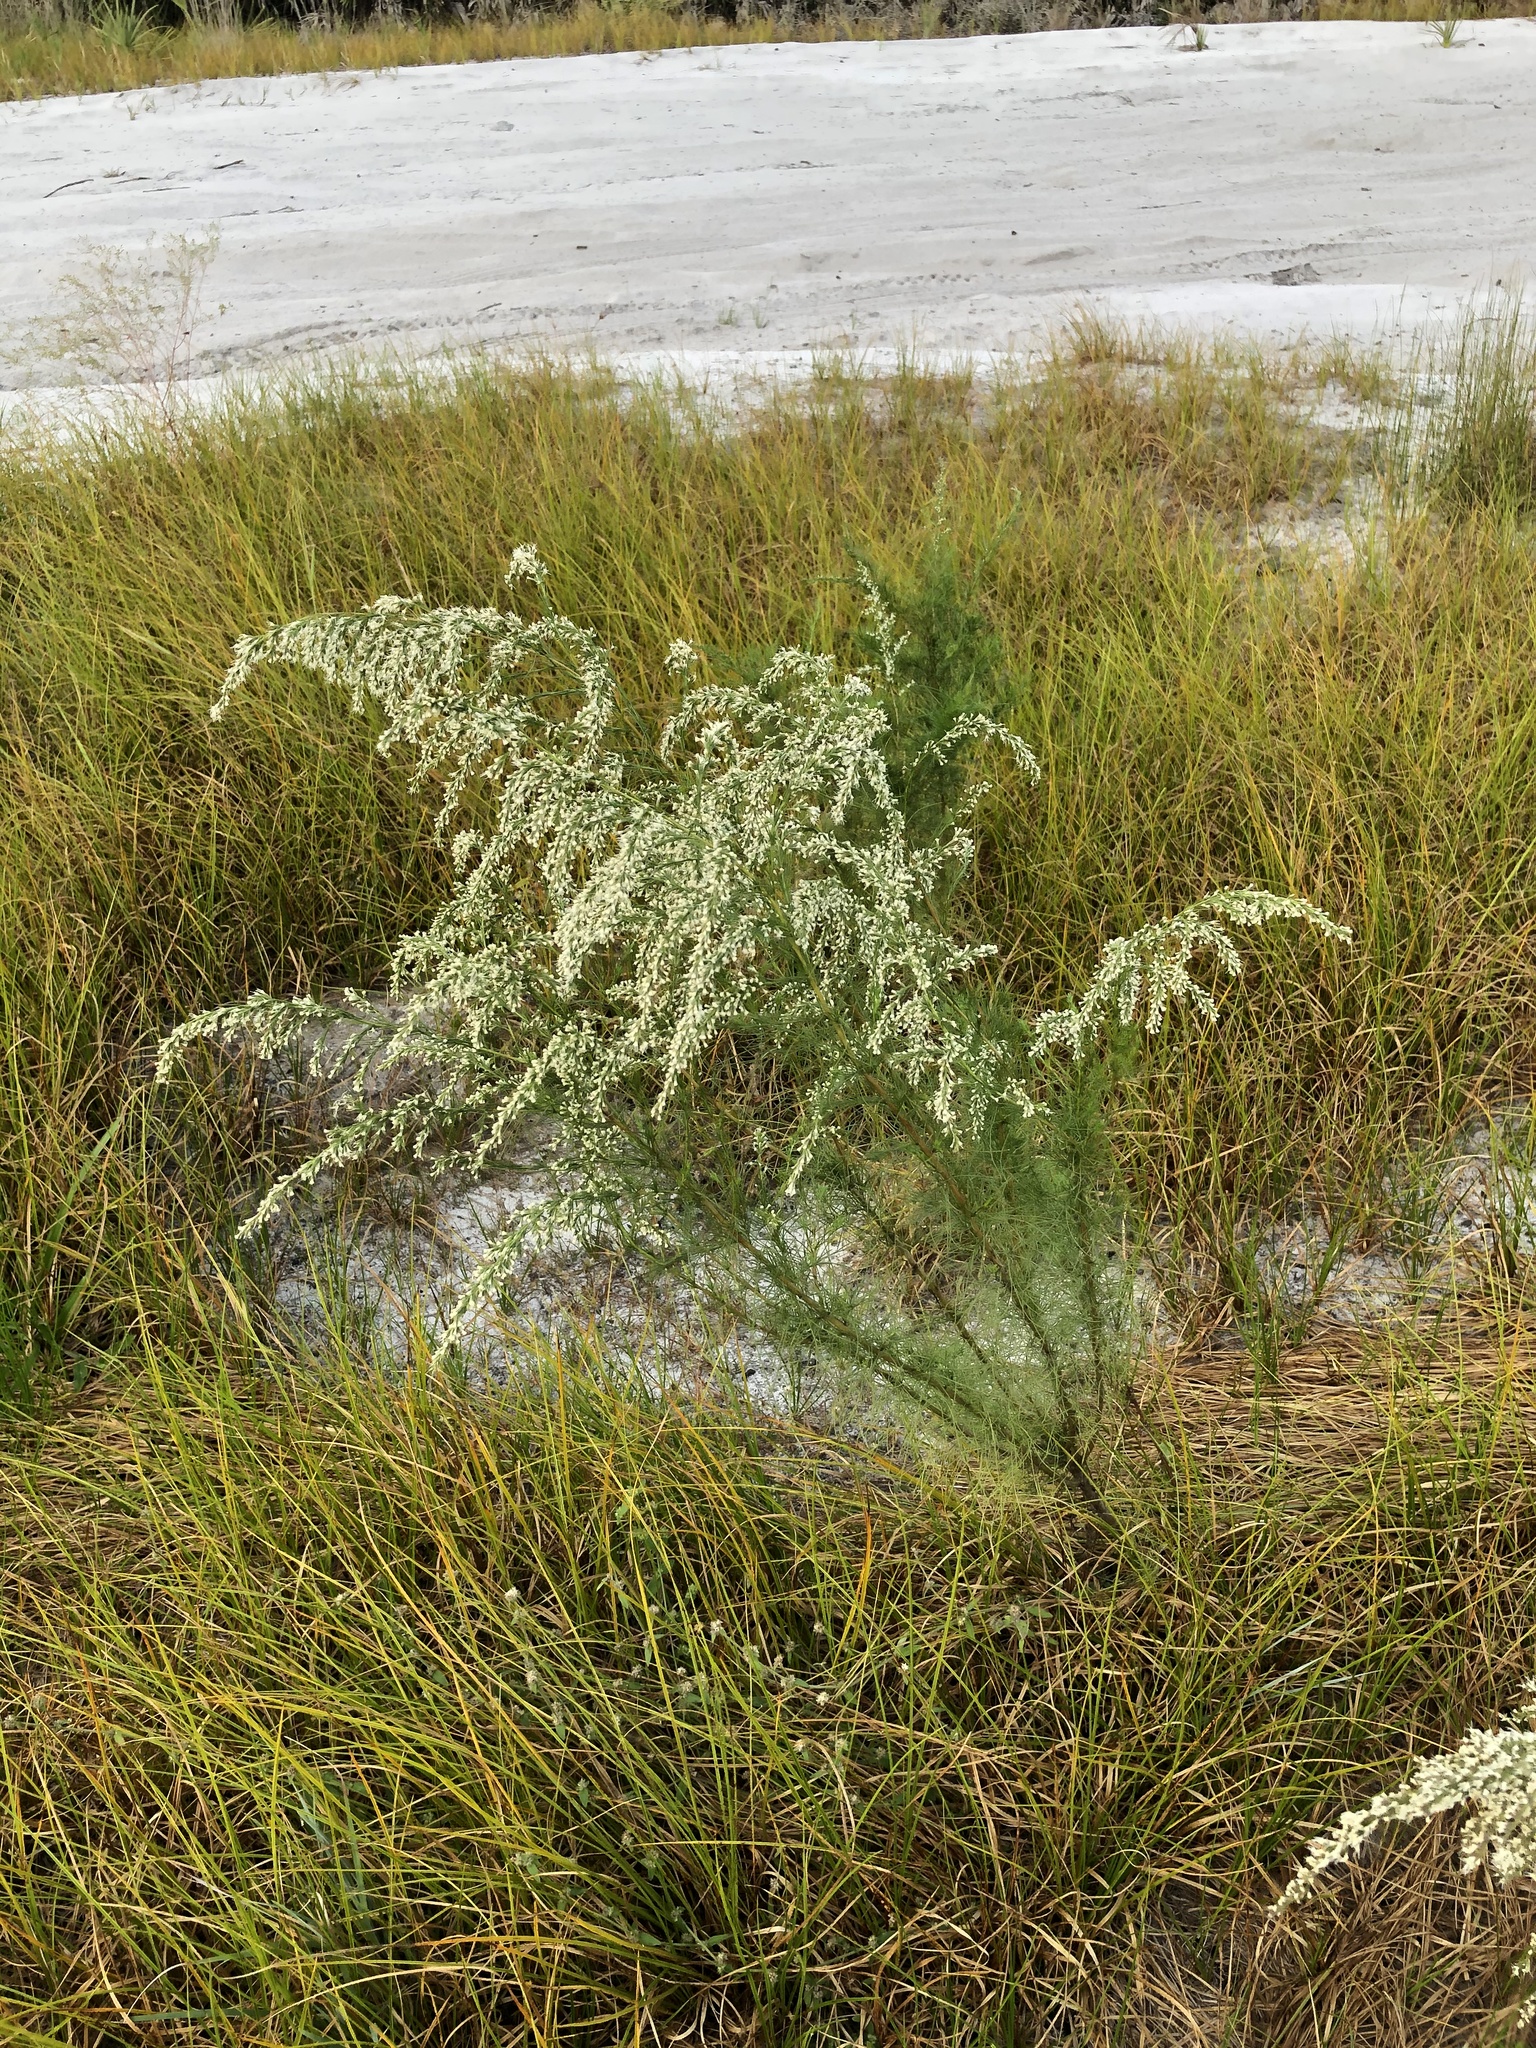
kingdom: Plantae
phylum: Tracheophyta
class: Magnoliopsida
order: Asterales
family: Asteraceae
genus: Eupatorium
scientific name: Eupatorium capillifolium
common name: Dog-fennel
